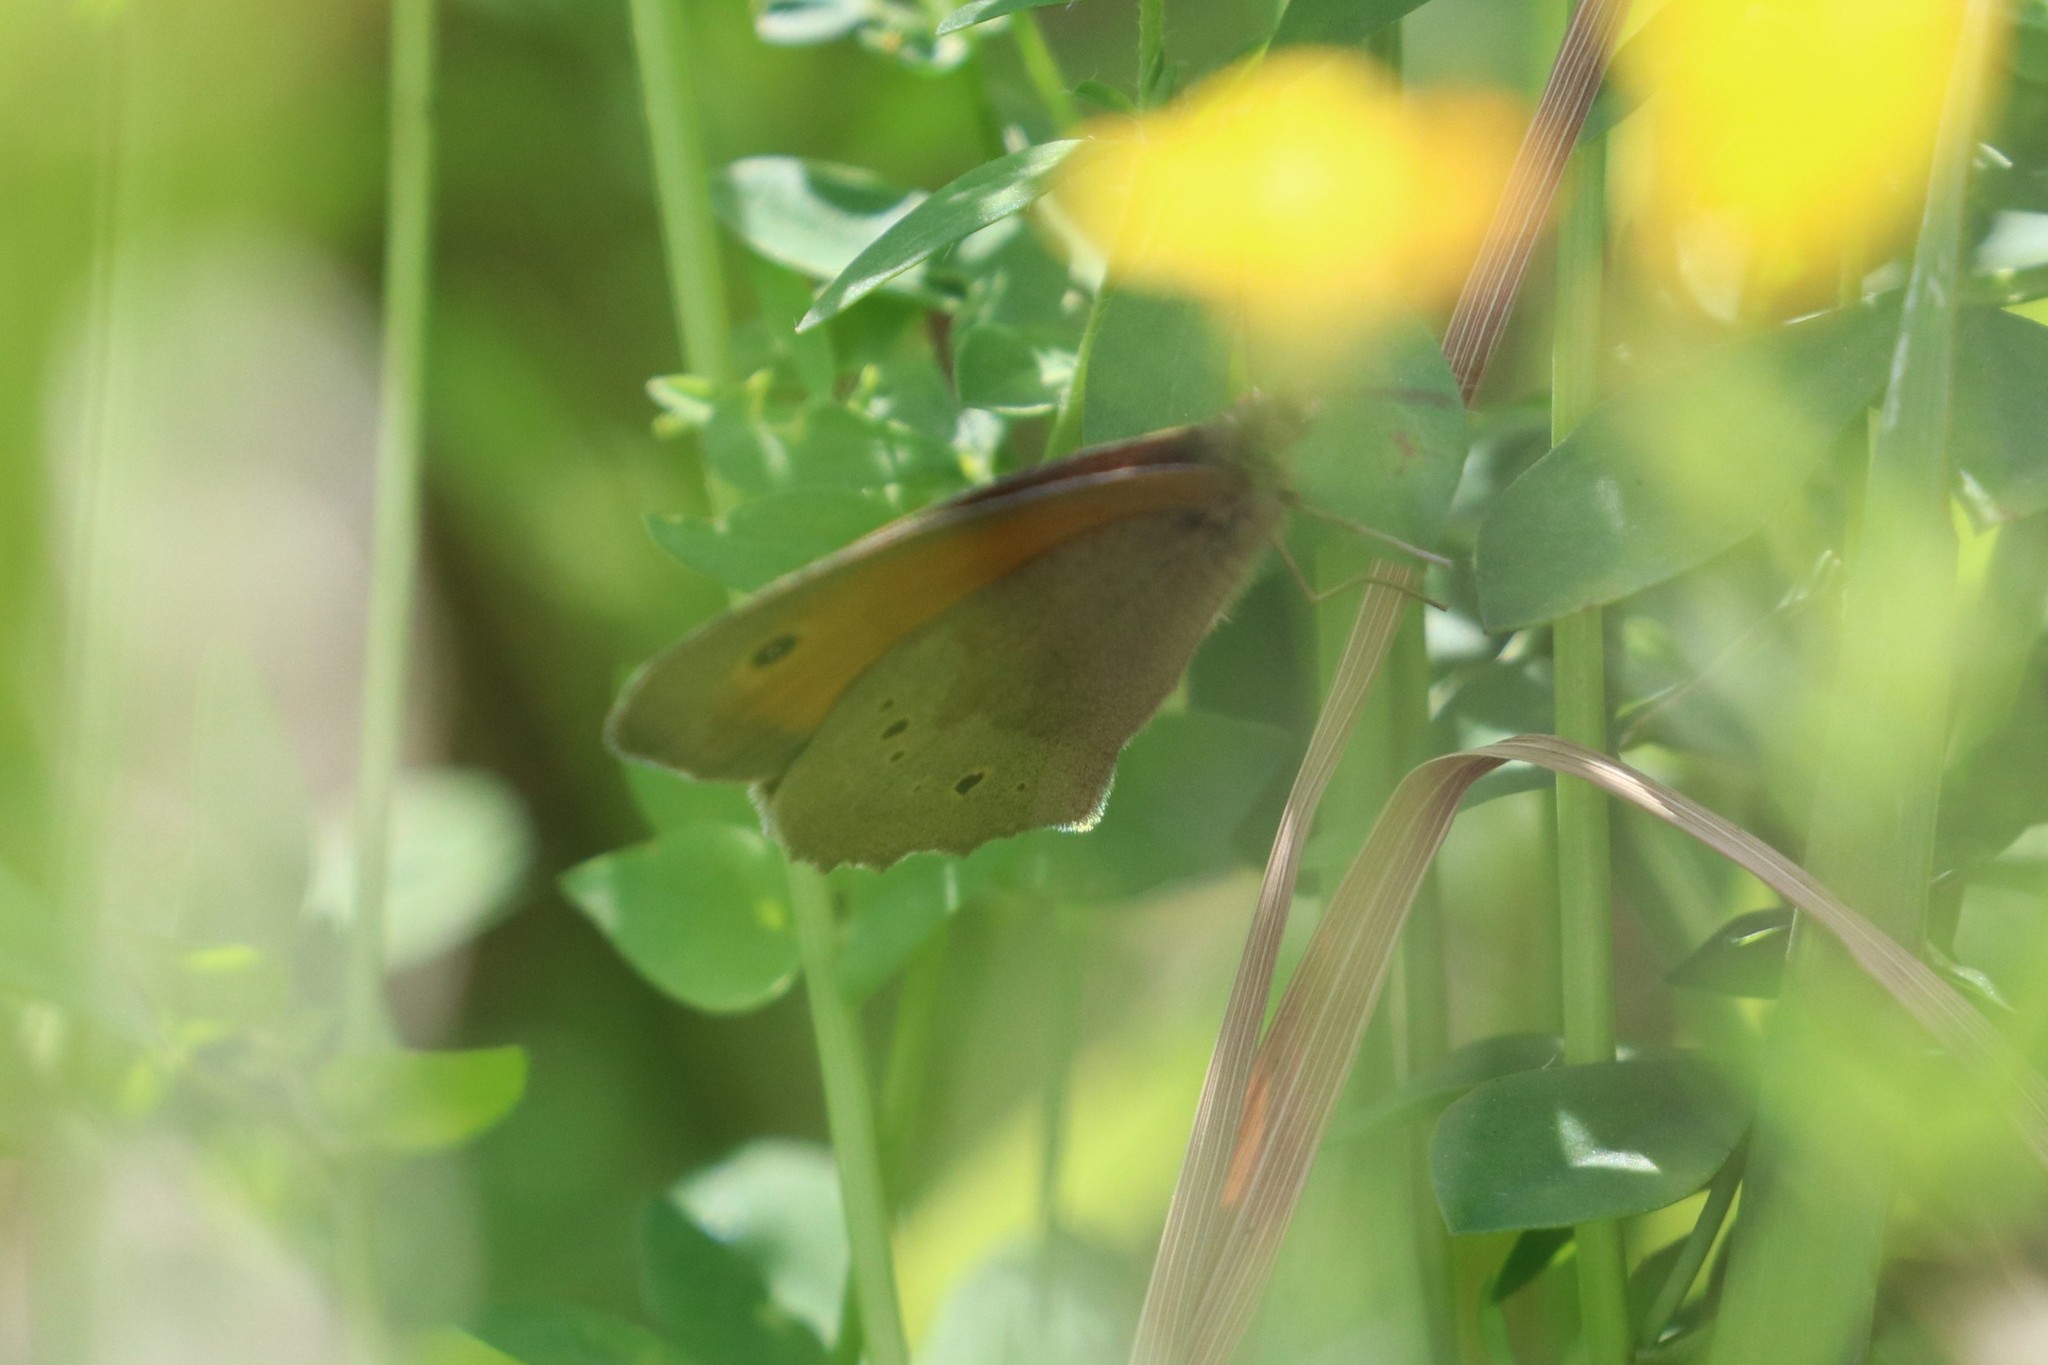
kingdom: Animalia
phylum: Arthropoda
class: Insecta
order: Lepidoptera
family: Nymphalidae
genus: Maniola
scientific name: Maniola jurtina
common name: Meadow brown
